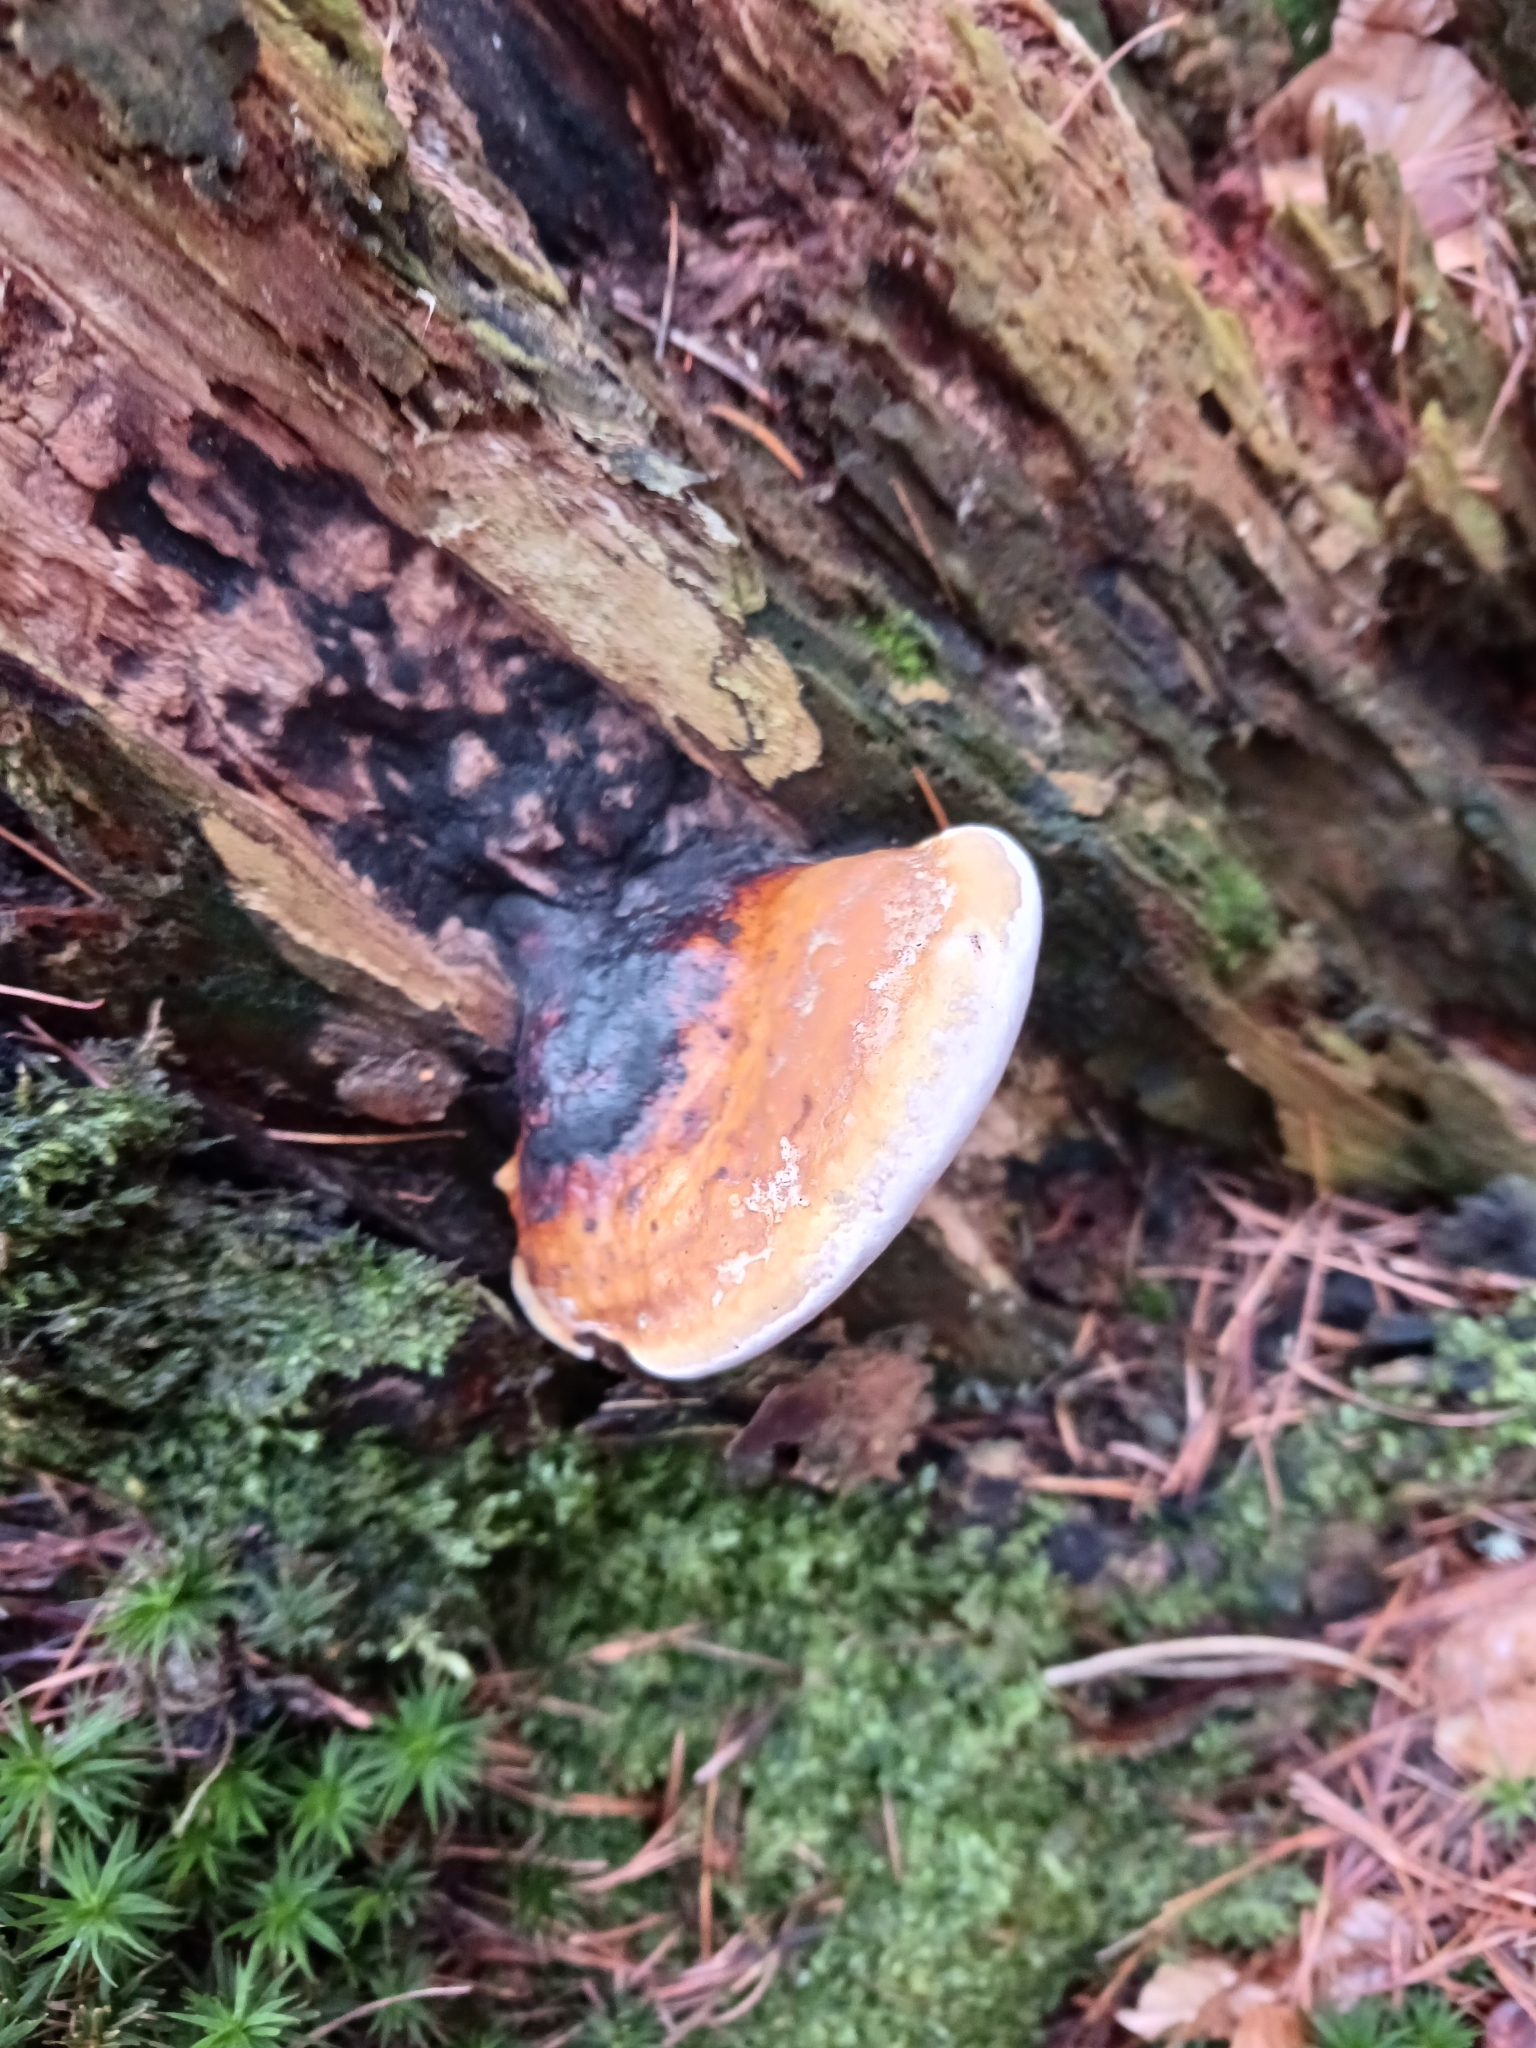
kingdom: Fungi
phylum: Basidiomycota
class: Agaricomycetes
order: Polyporales
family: Fomitopsidaceae
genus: Fomitopsis
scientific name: Fomitopsis pinicola
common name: Red-belted bracket
